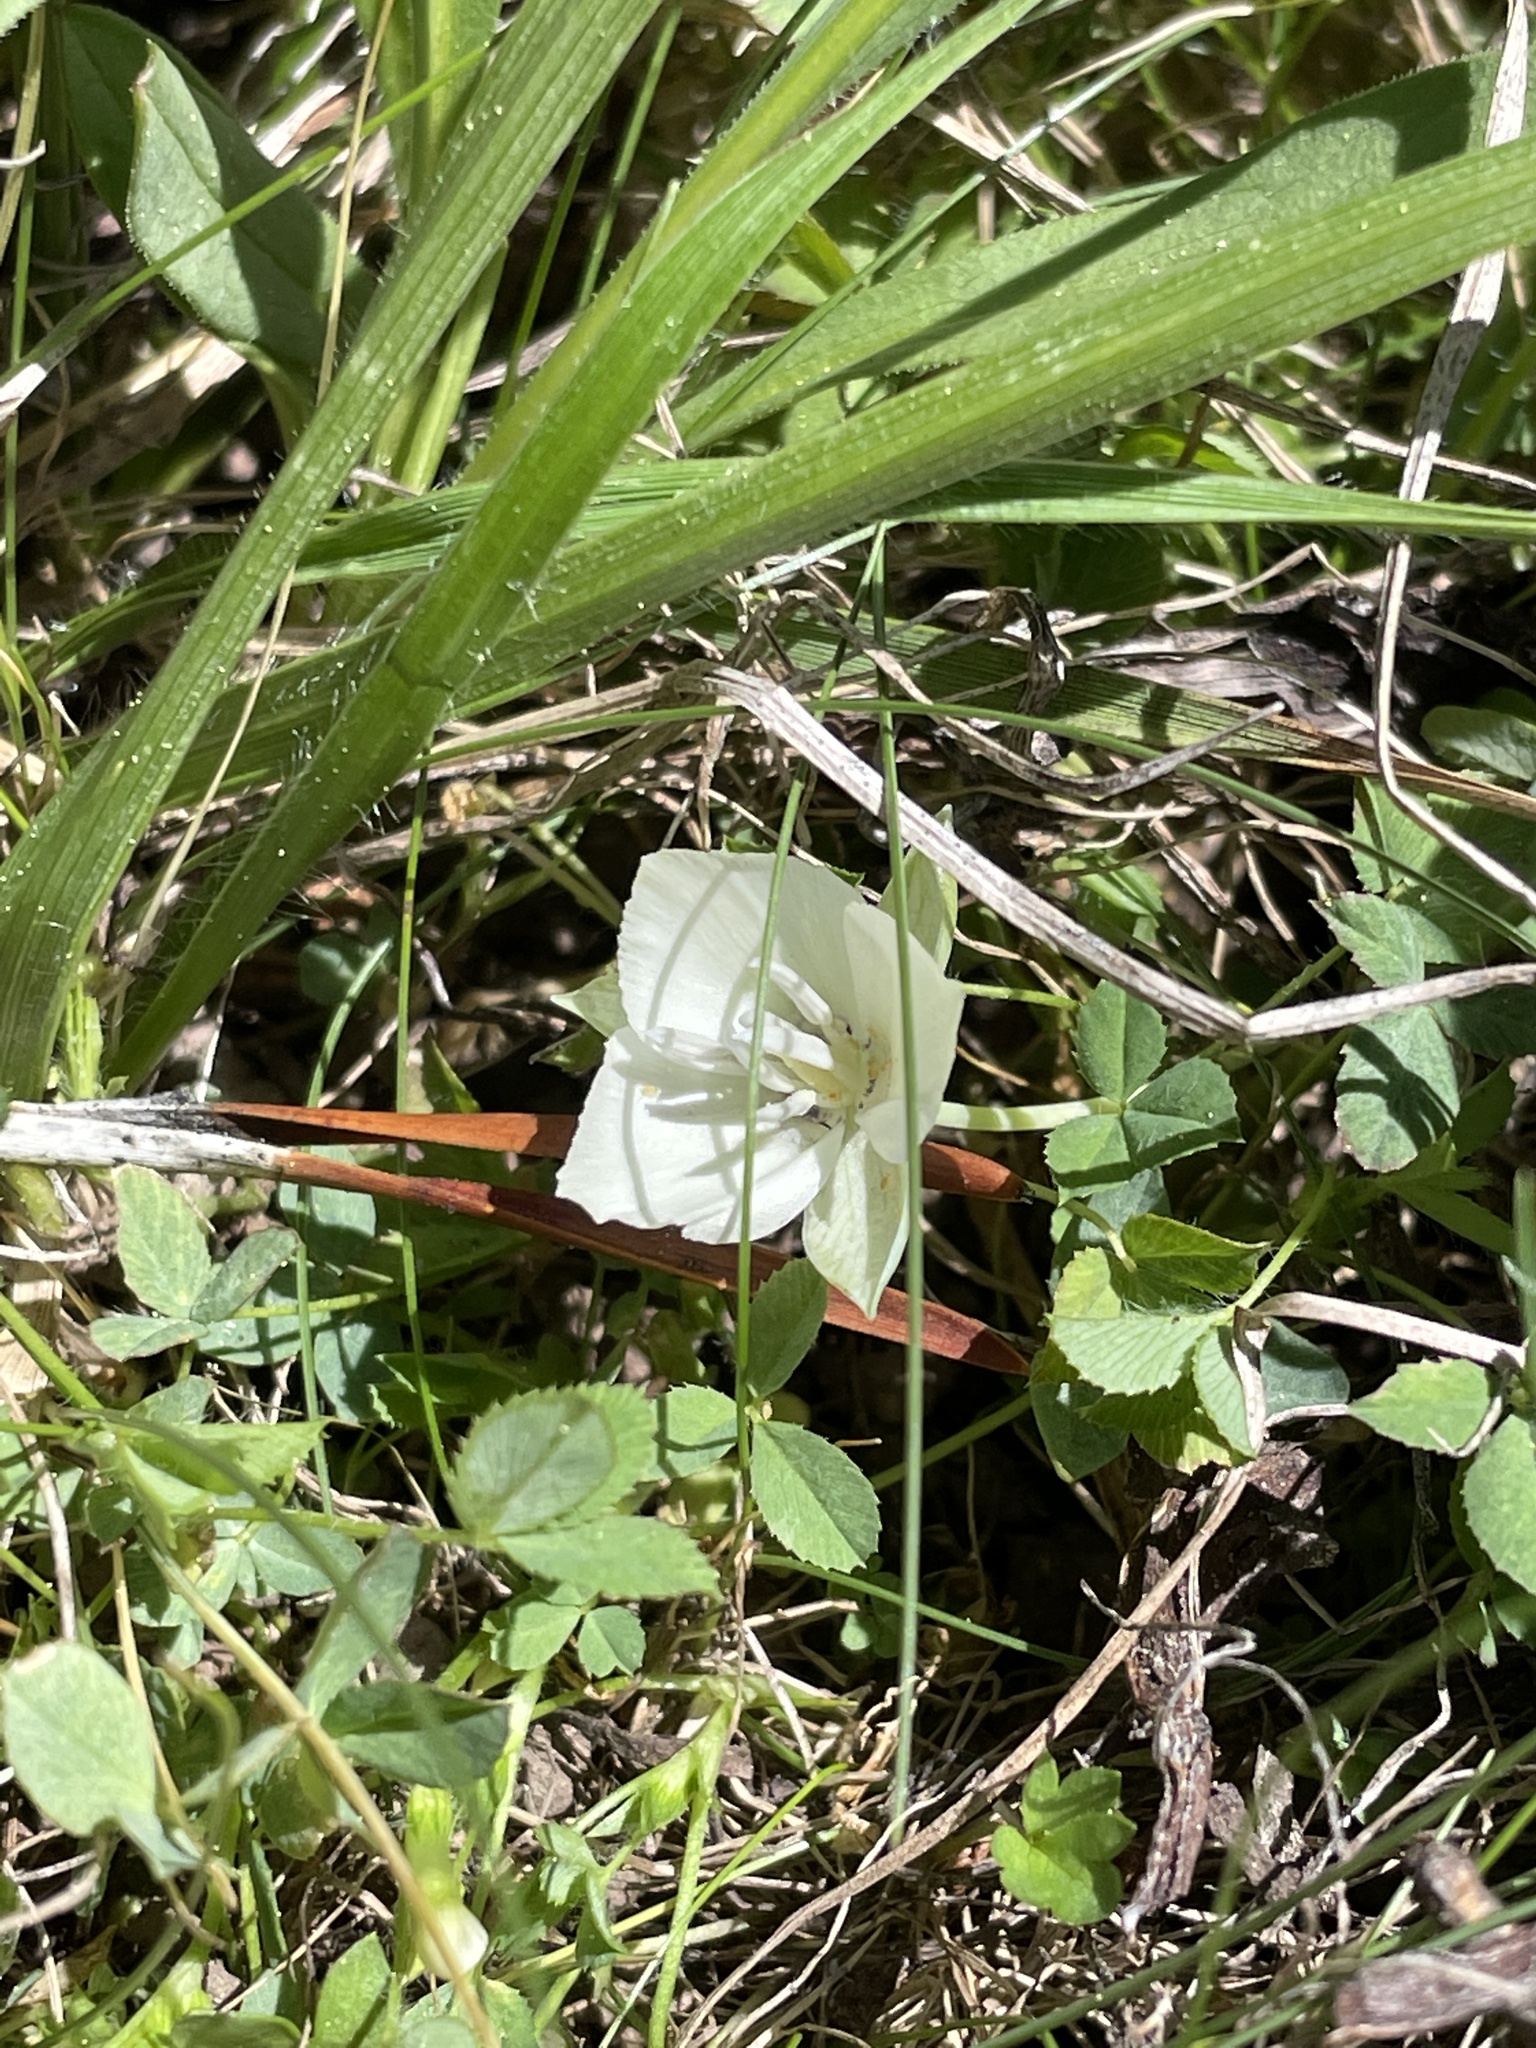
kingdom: Plantae
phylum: Tracheophyta
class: Liliopsida
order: Liliales
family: Liliaceae
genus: Calochortus
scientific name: Calochortus minimus
